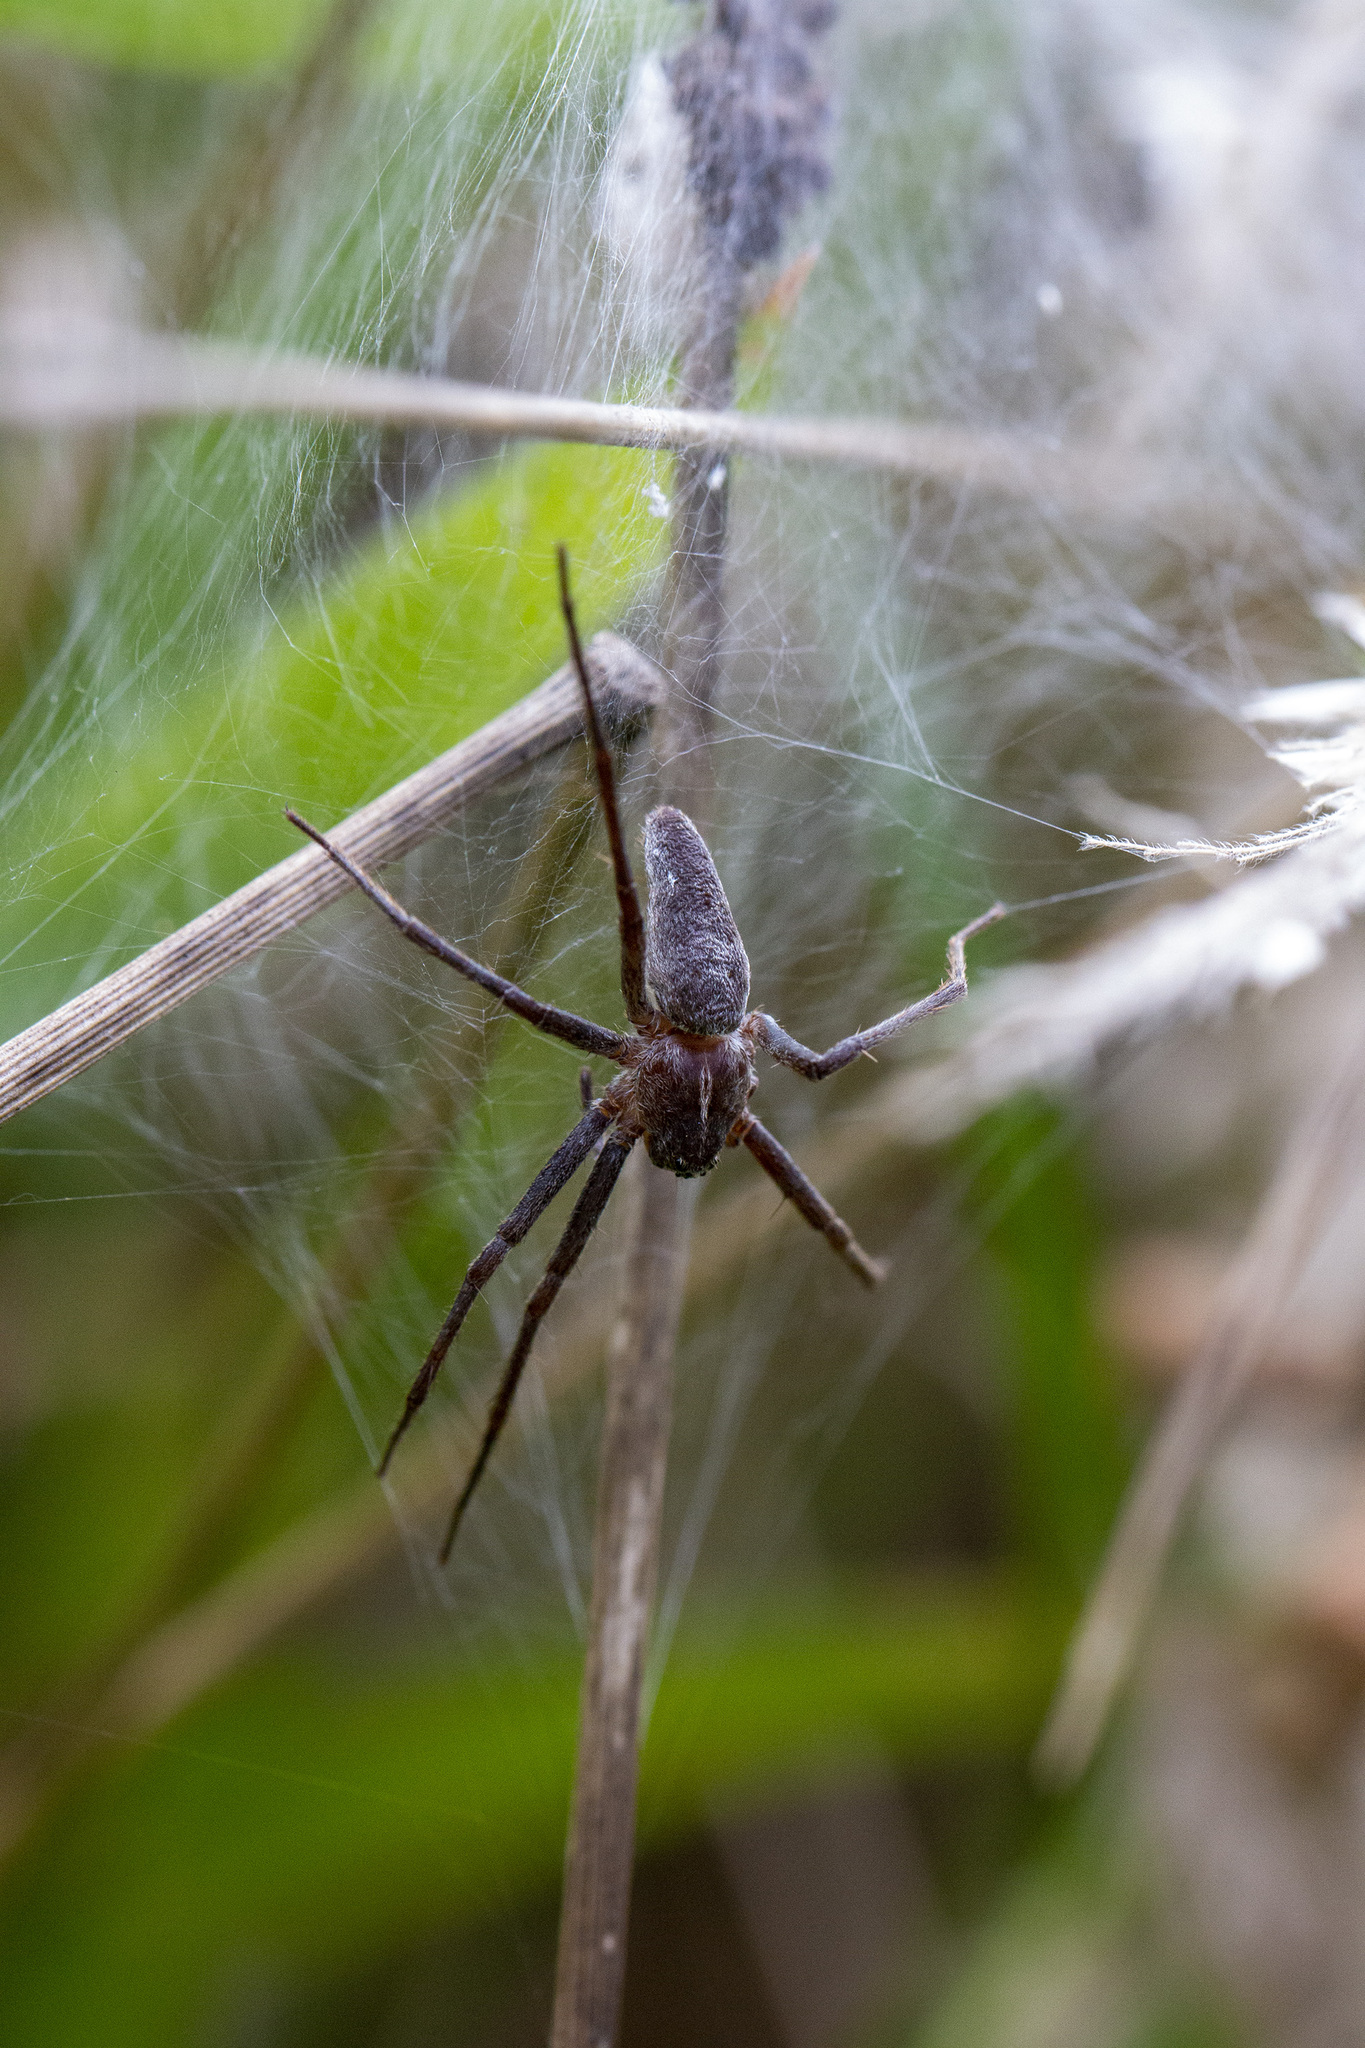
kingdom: Animalia
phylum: Arthropoda
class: Arachnida
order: Araneae
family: Pisauridae
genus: Pisaura
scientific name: Pisaura mirabilis
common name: Tent spider
